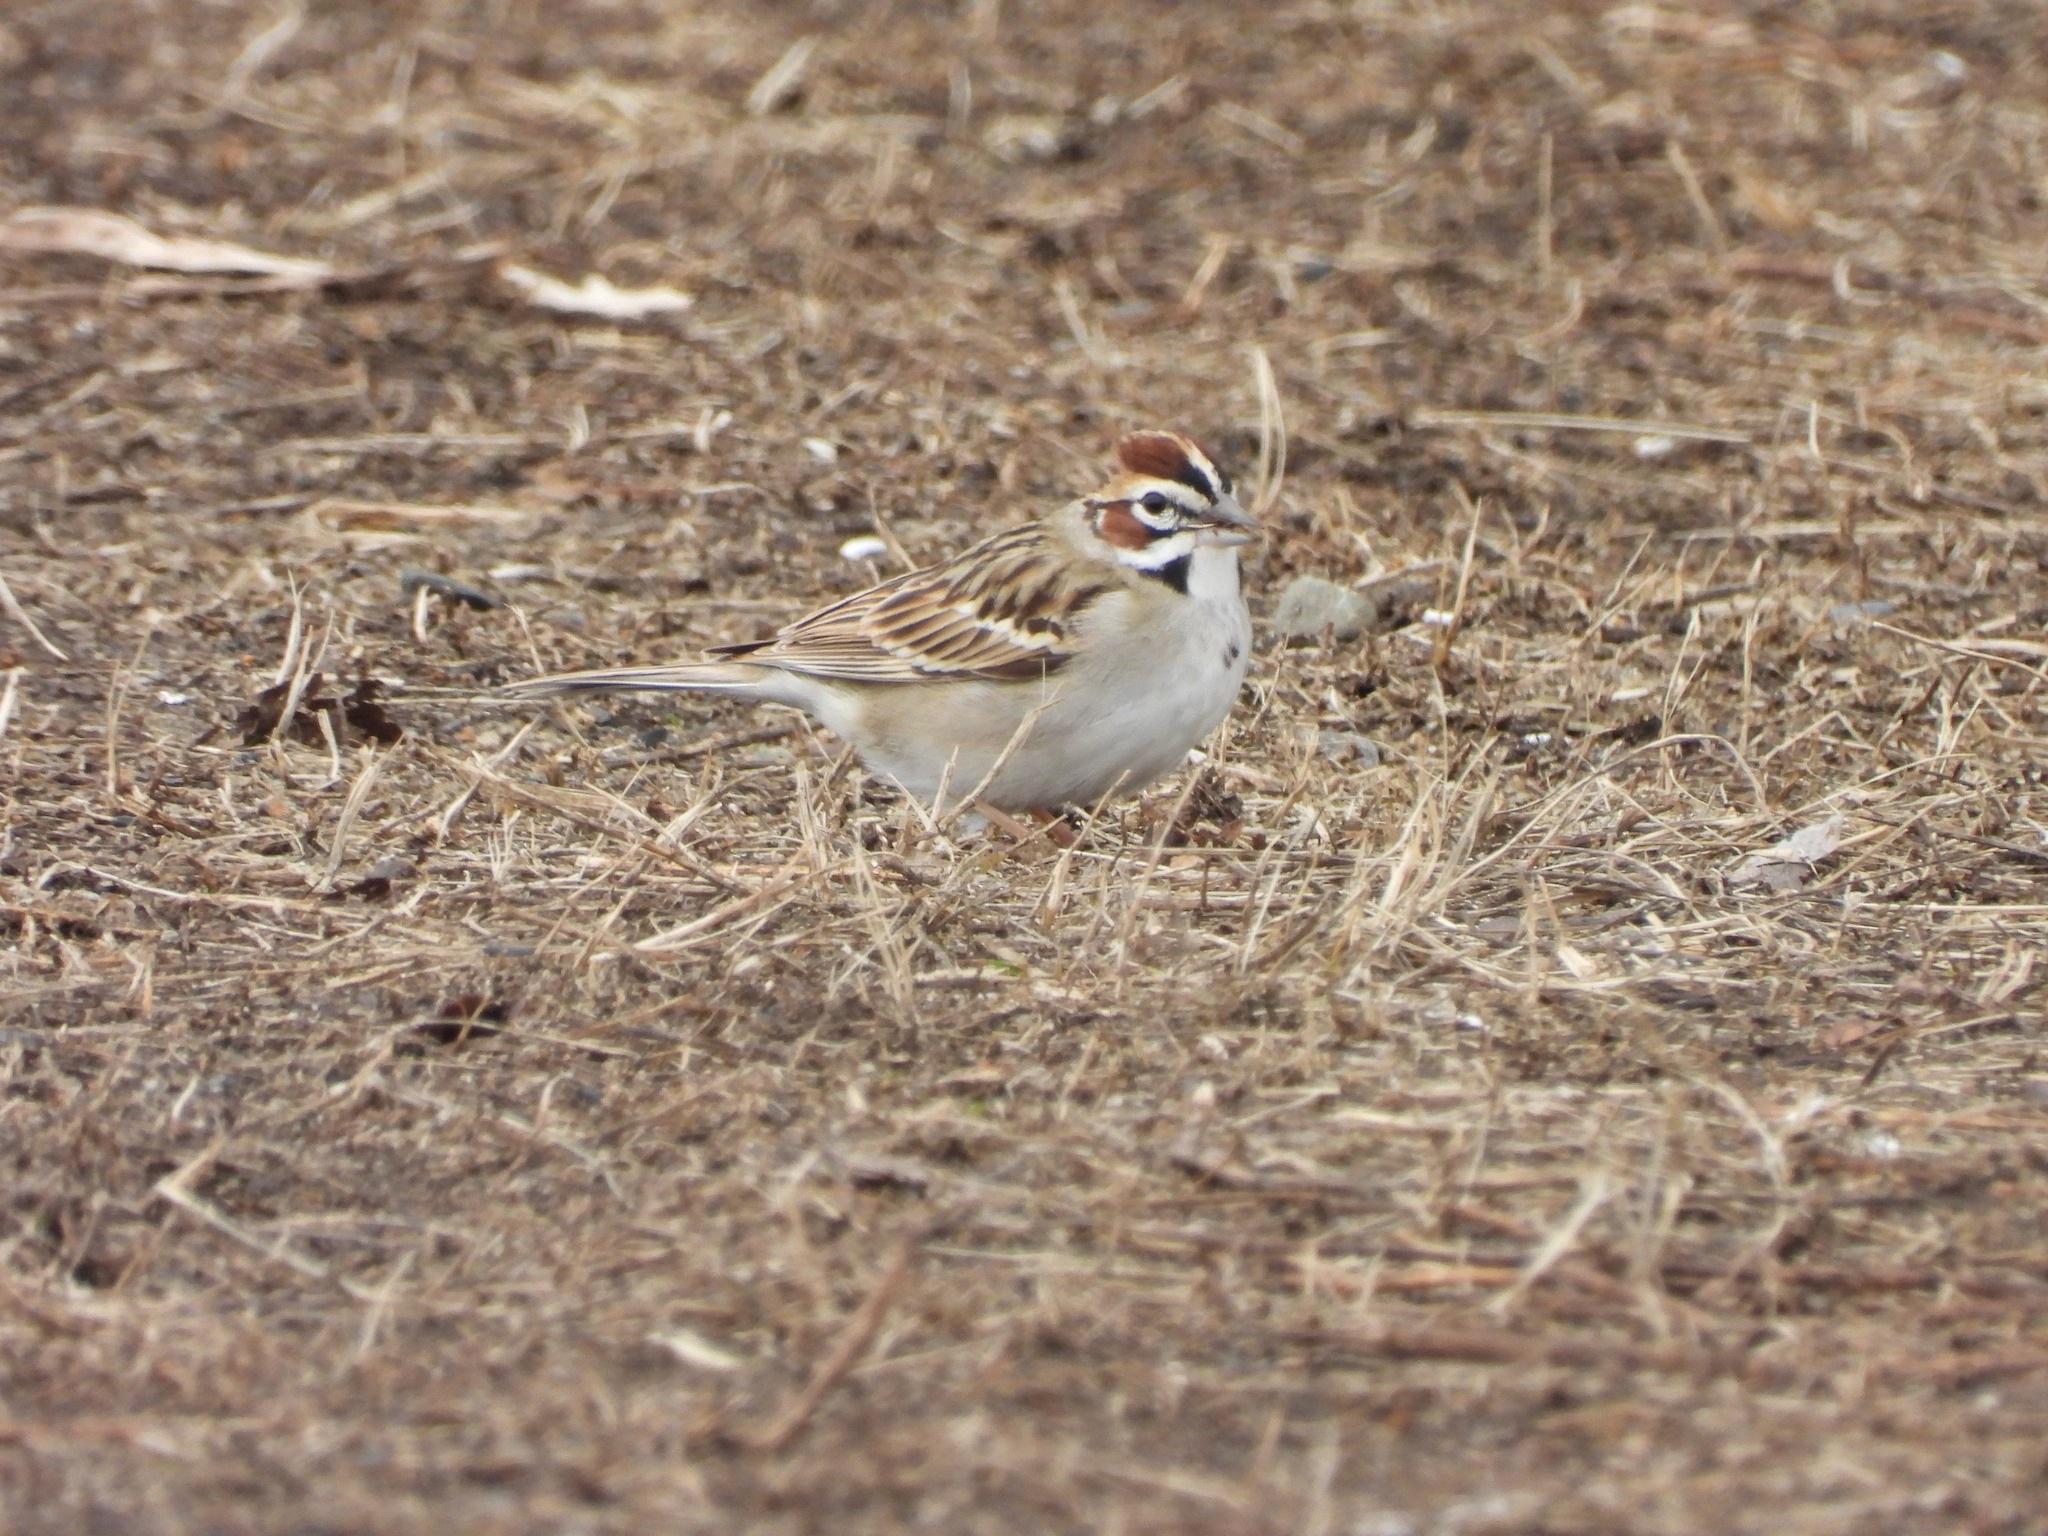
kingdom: Animalia
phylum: Chordata
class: Aves
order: Passeriformes
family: Passerellidae
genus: Chondestes
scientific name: Chondestes grammacus
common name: Lark sparrow
